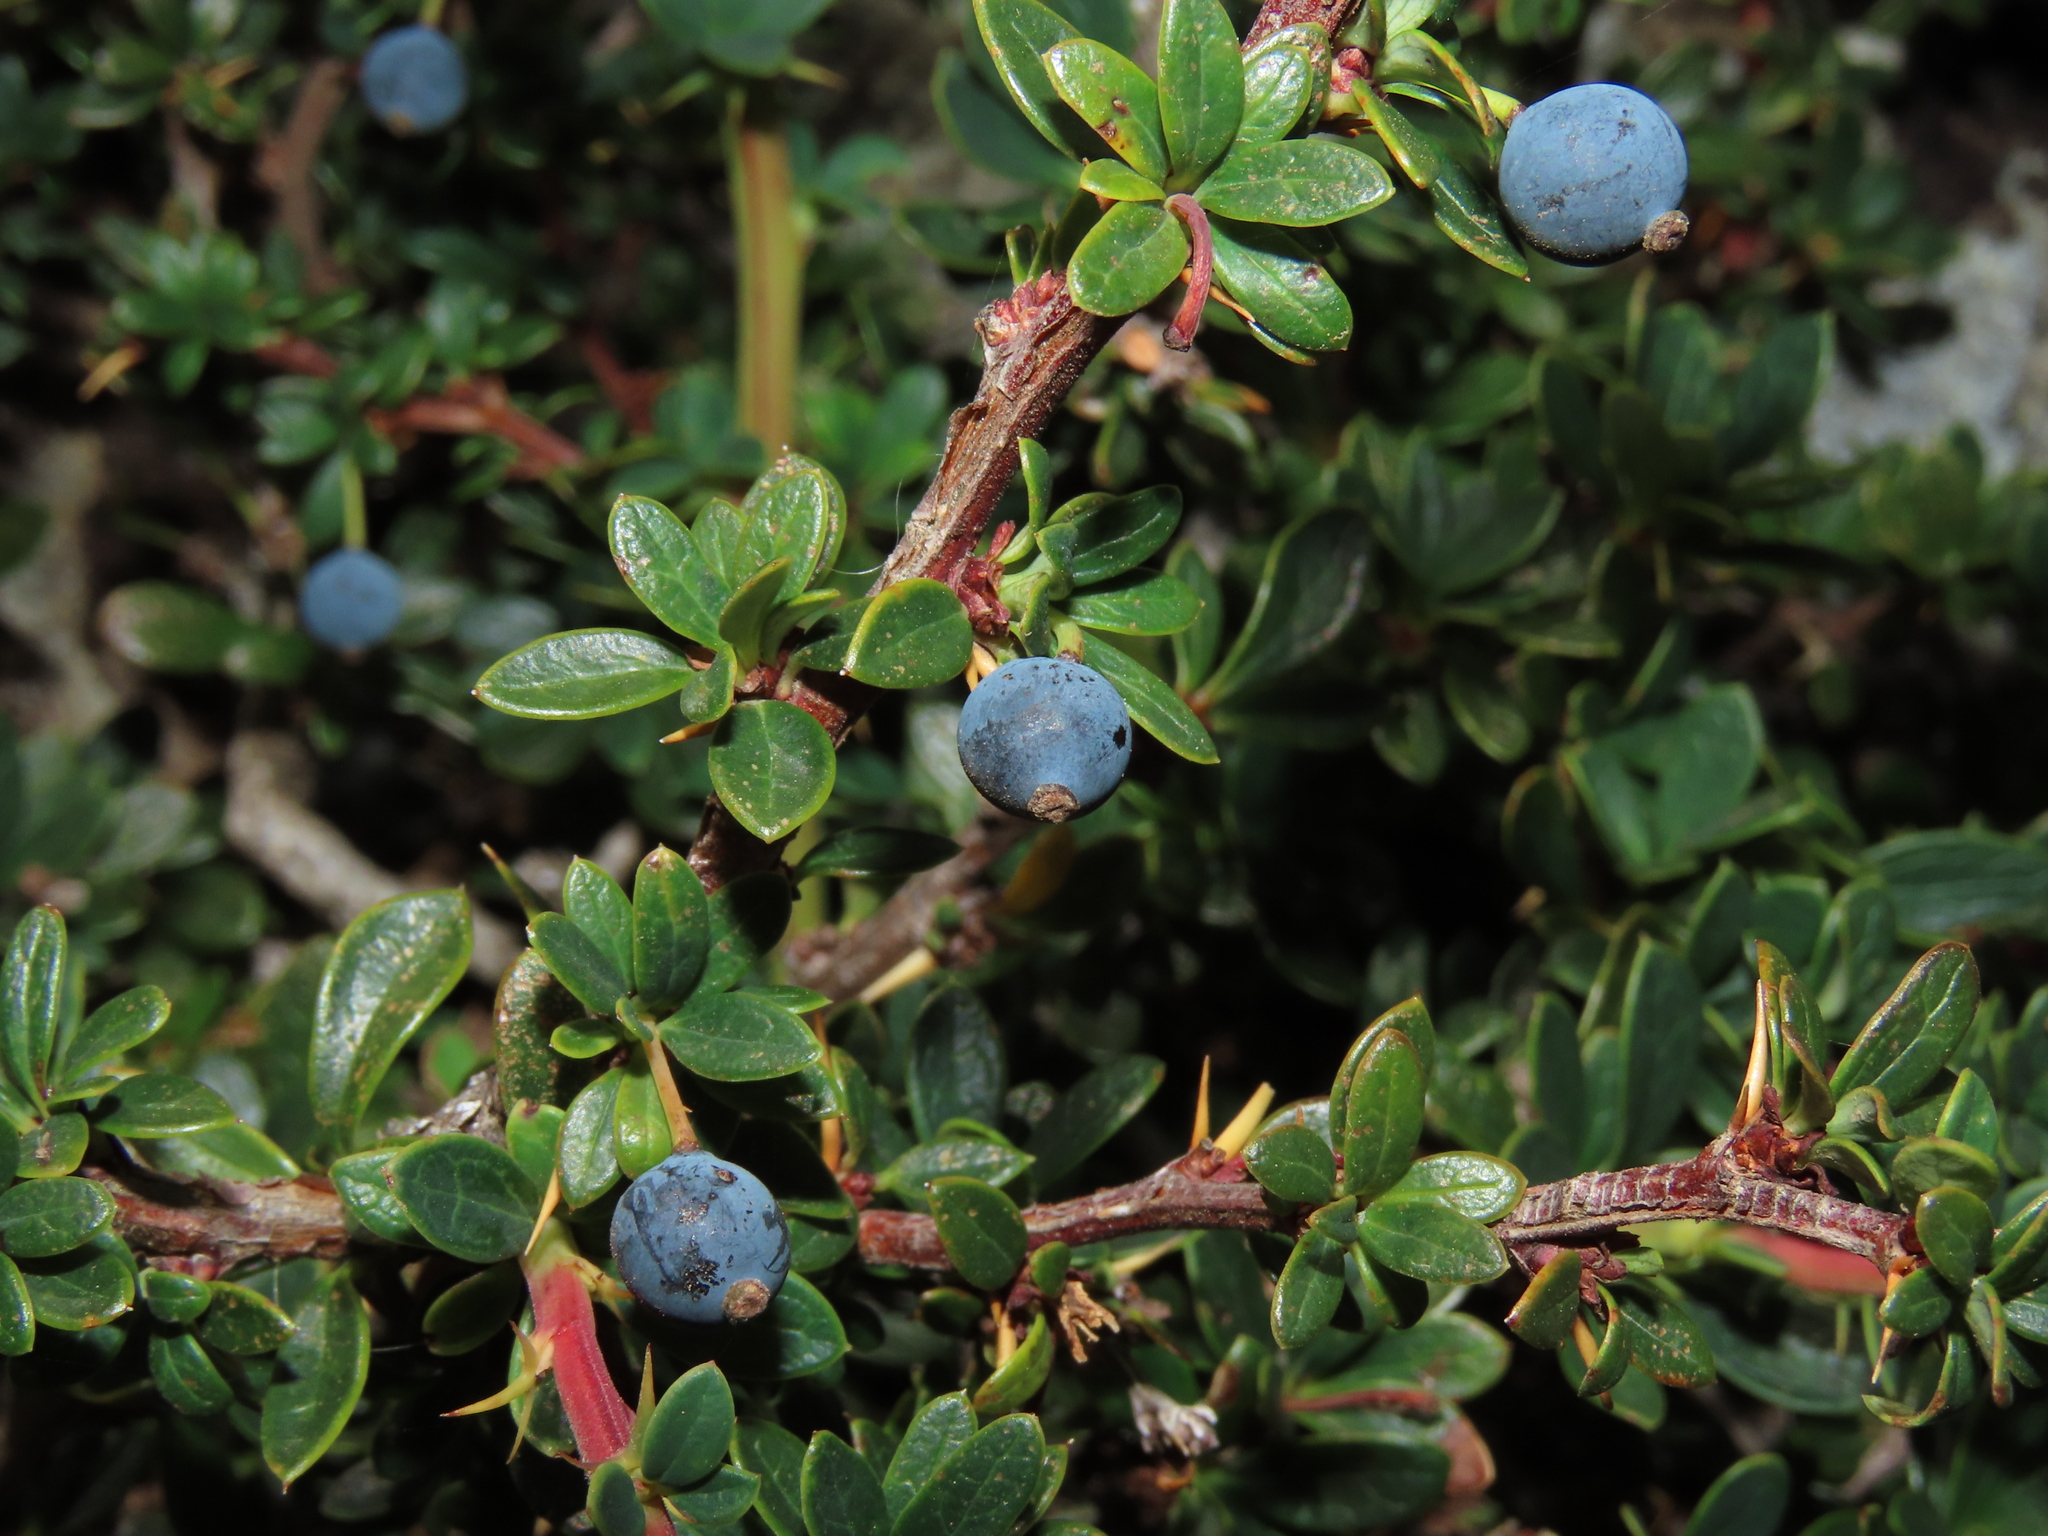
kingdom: Plantae
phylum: Tracheophyta
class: Magnoliopsida
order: Ranunculales
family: Berberidaceae
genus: Berberis
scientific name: Berberis microphylla
